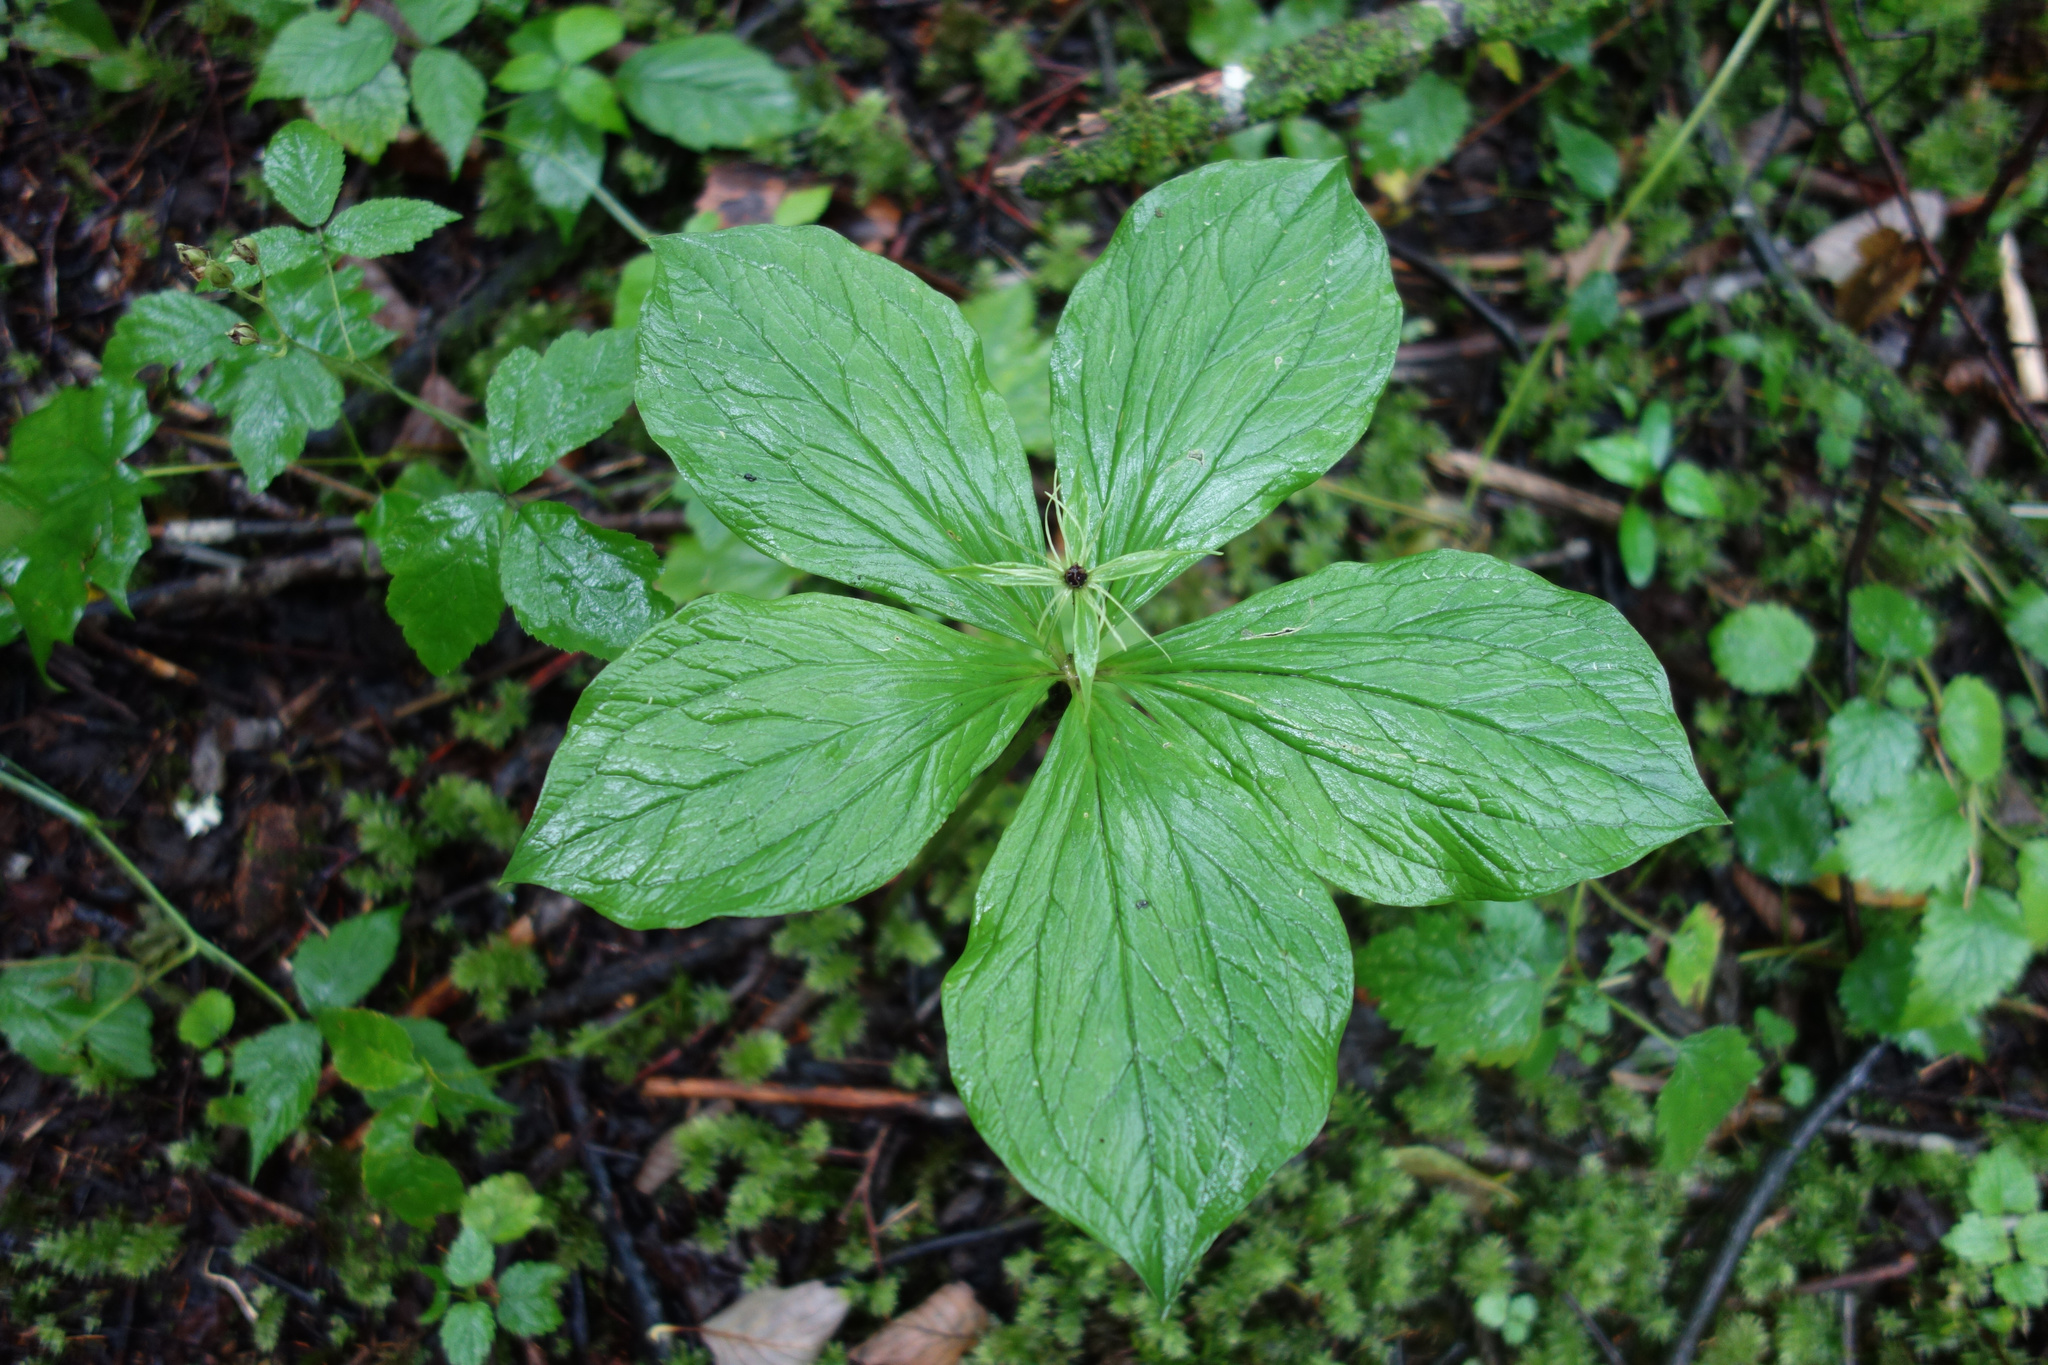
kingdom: Plantae
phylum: Tracheophyta
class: Liliopsida
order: Liliales
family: Melanthiaceae
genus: Paris
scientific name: Paris quadrifolia
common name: Herb-paris
